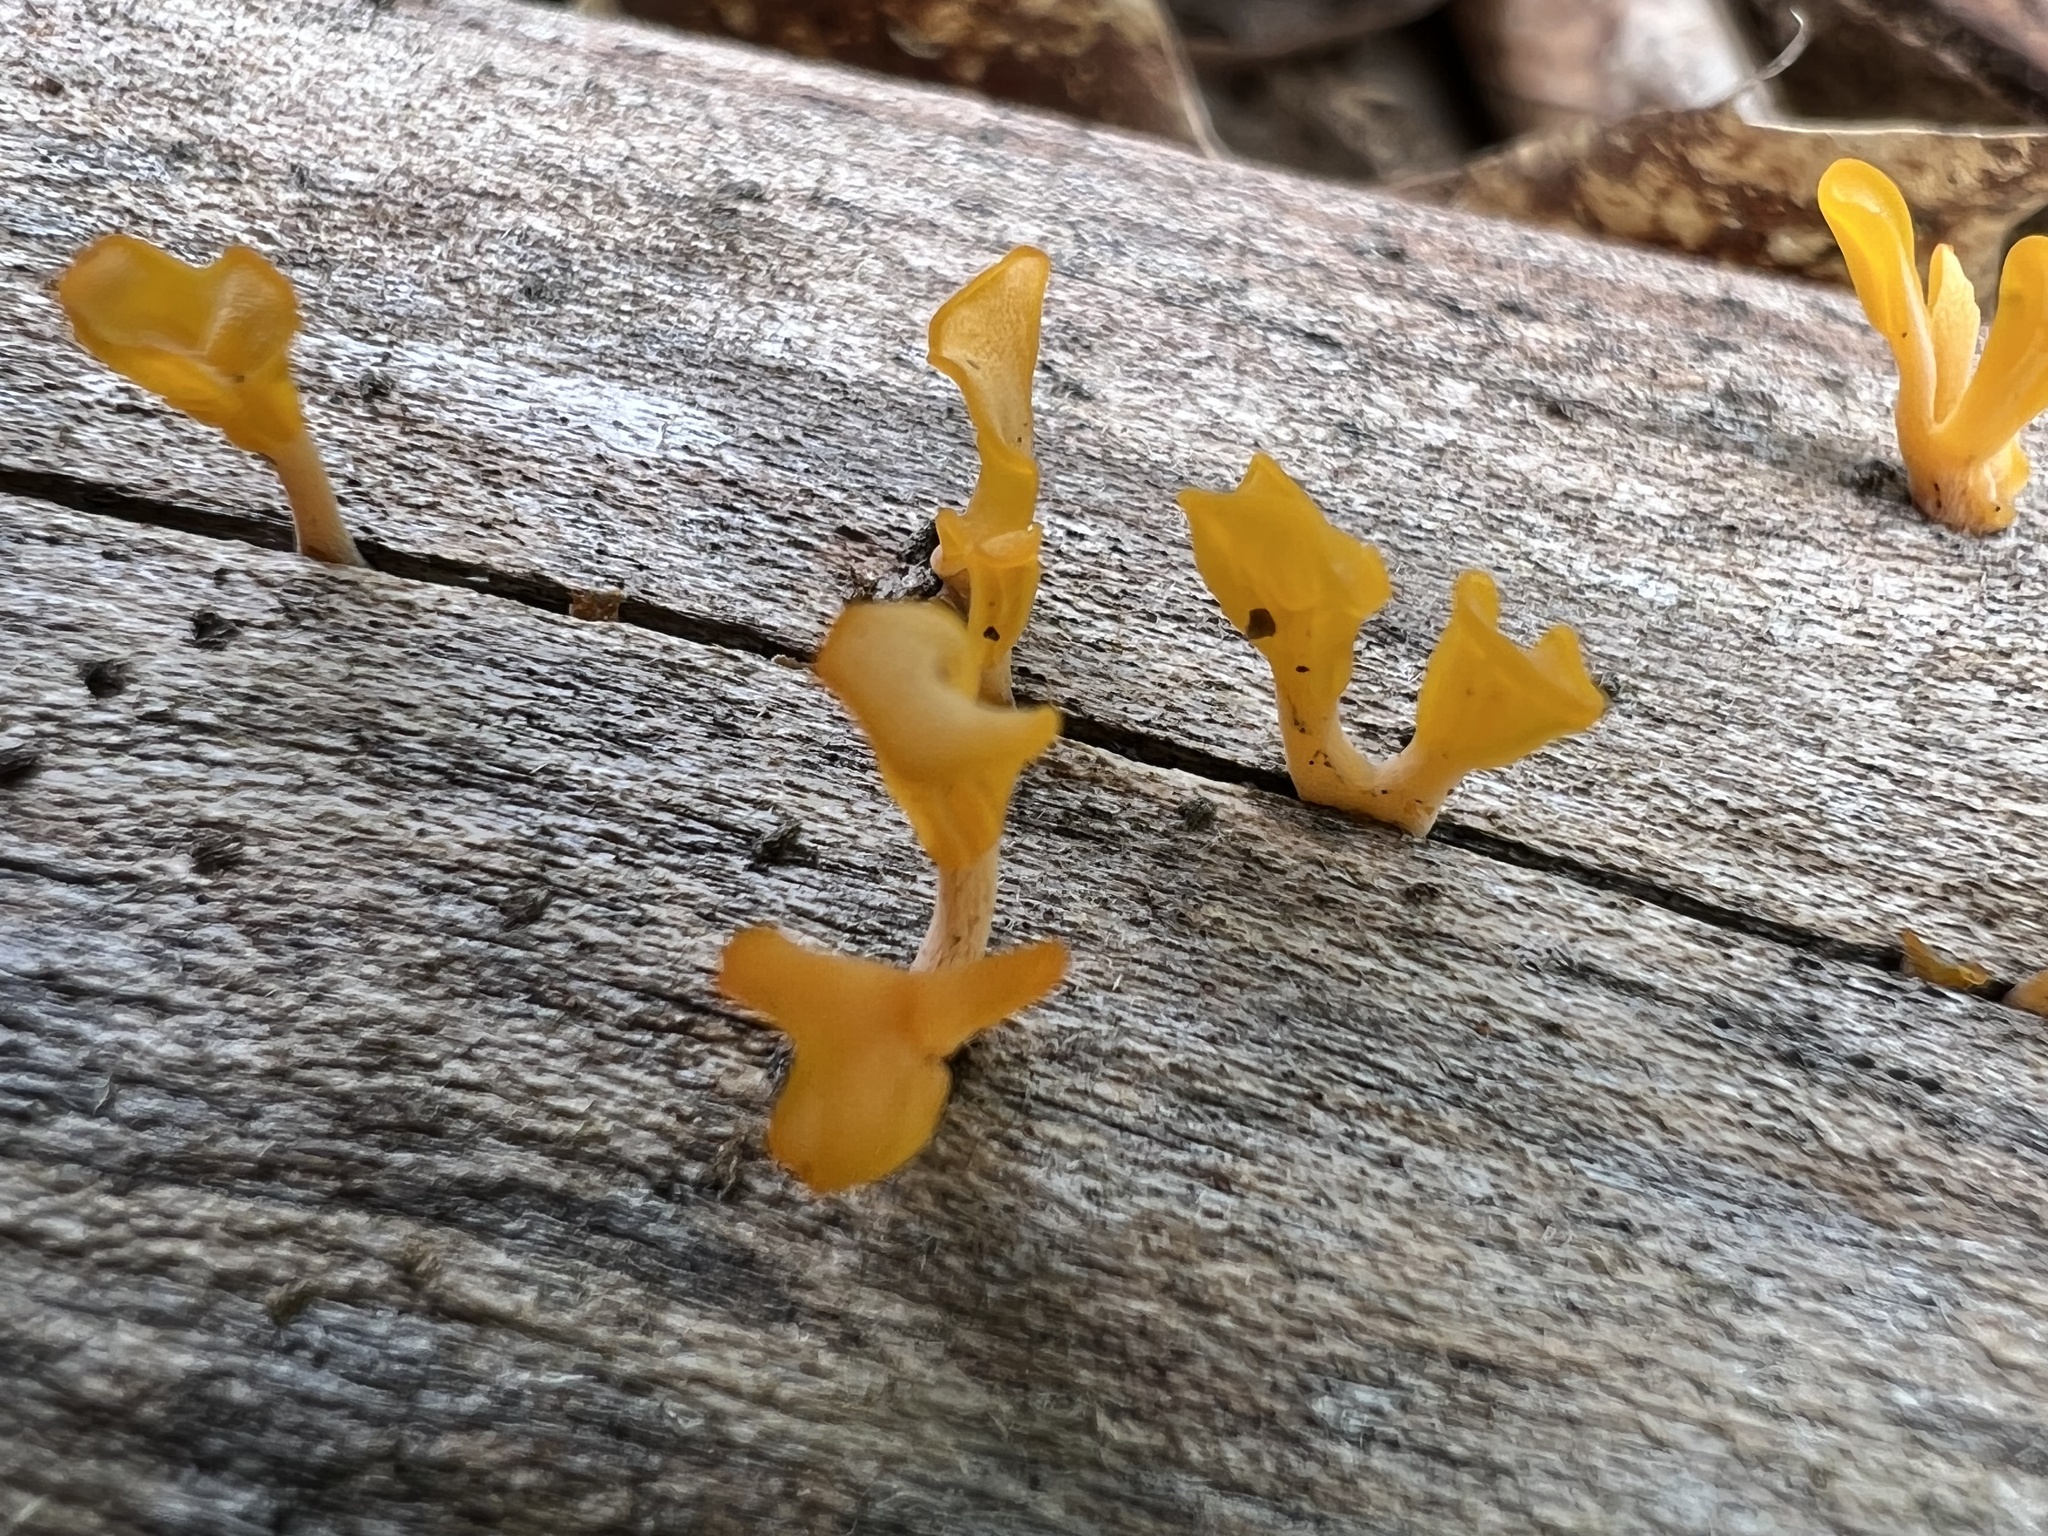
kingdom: Fungi
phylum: Basidiomycota
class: Dacrymycetes
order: Dacrymycetales
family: Dacrymycetaceae
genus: Dacrymyces
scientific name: Dacrymyces spathularius
